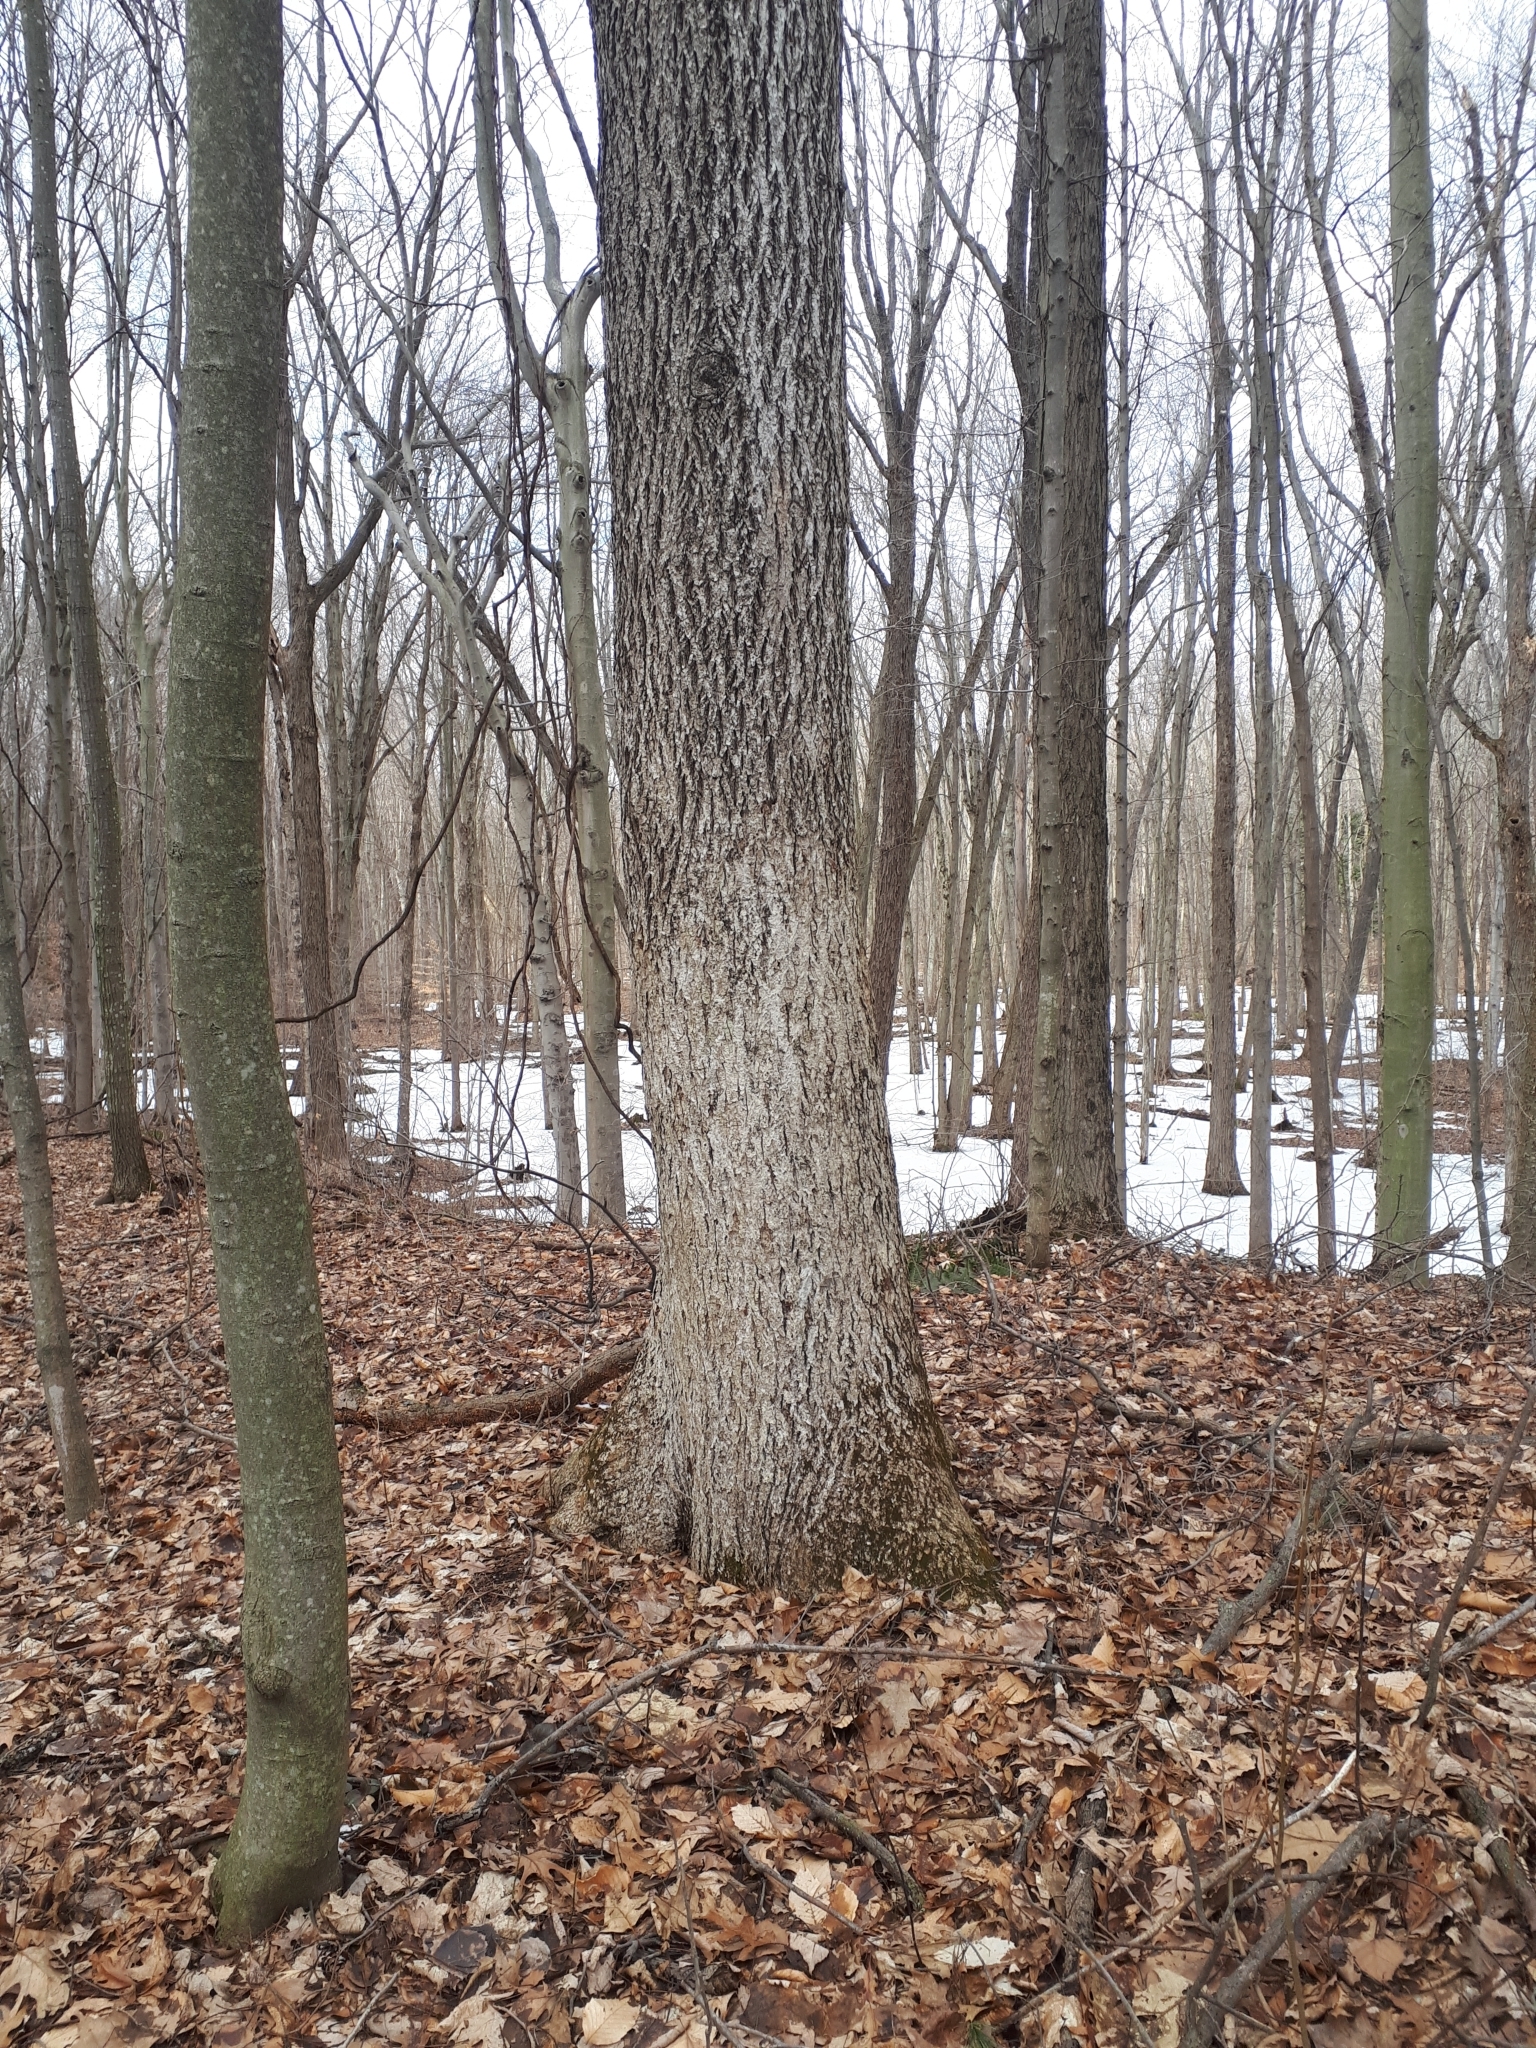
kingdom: Plantae
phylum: Tracheophyta
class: Magnoliopsida
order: Fagales
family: Juglandaceae
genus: Carya
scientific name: Carya cordiformis
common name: Bitternut hickory
